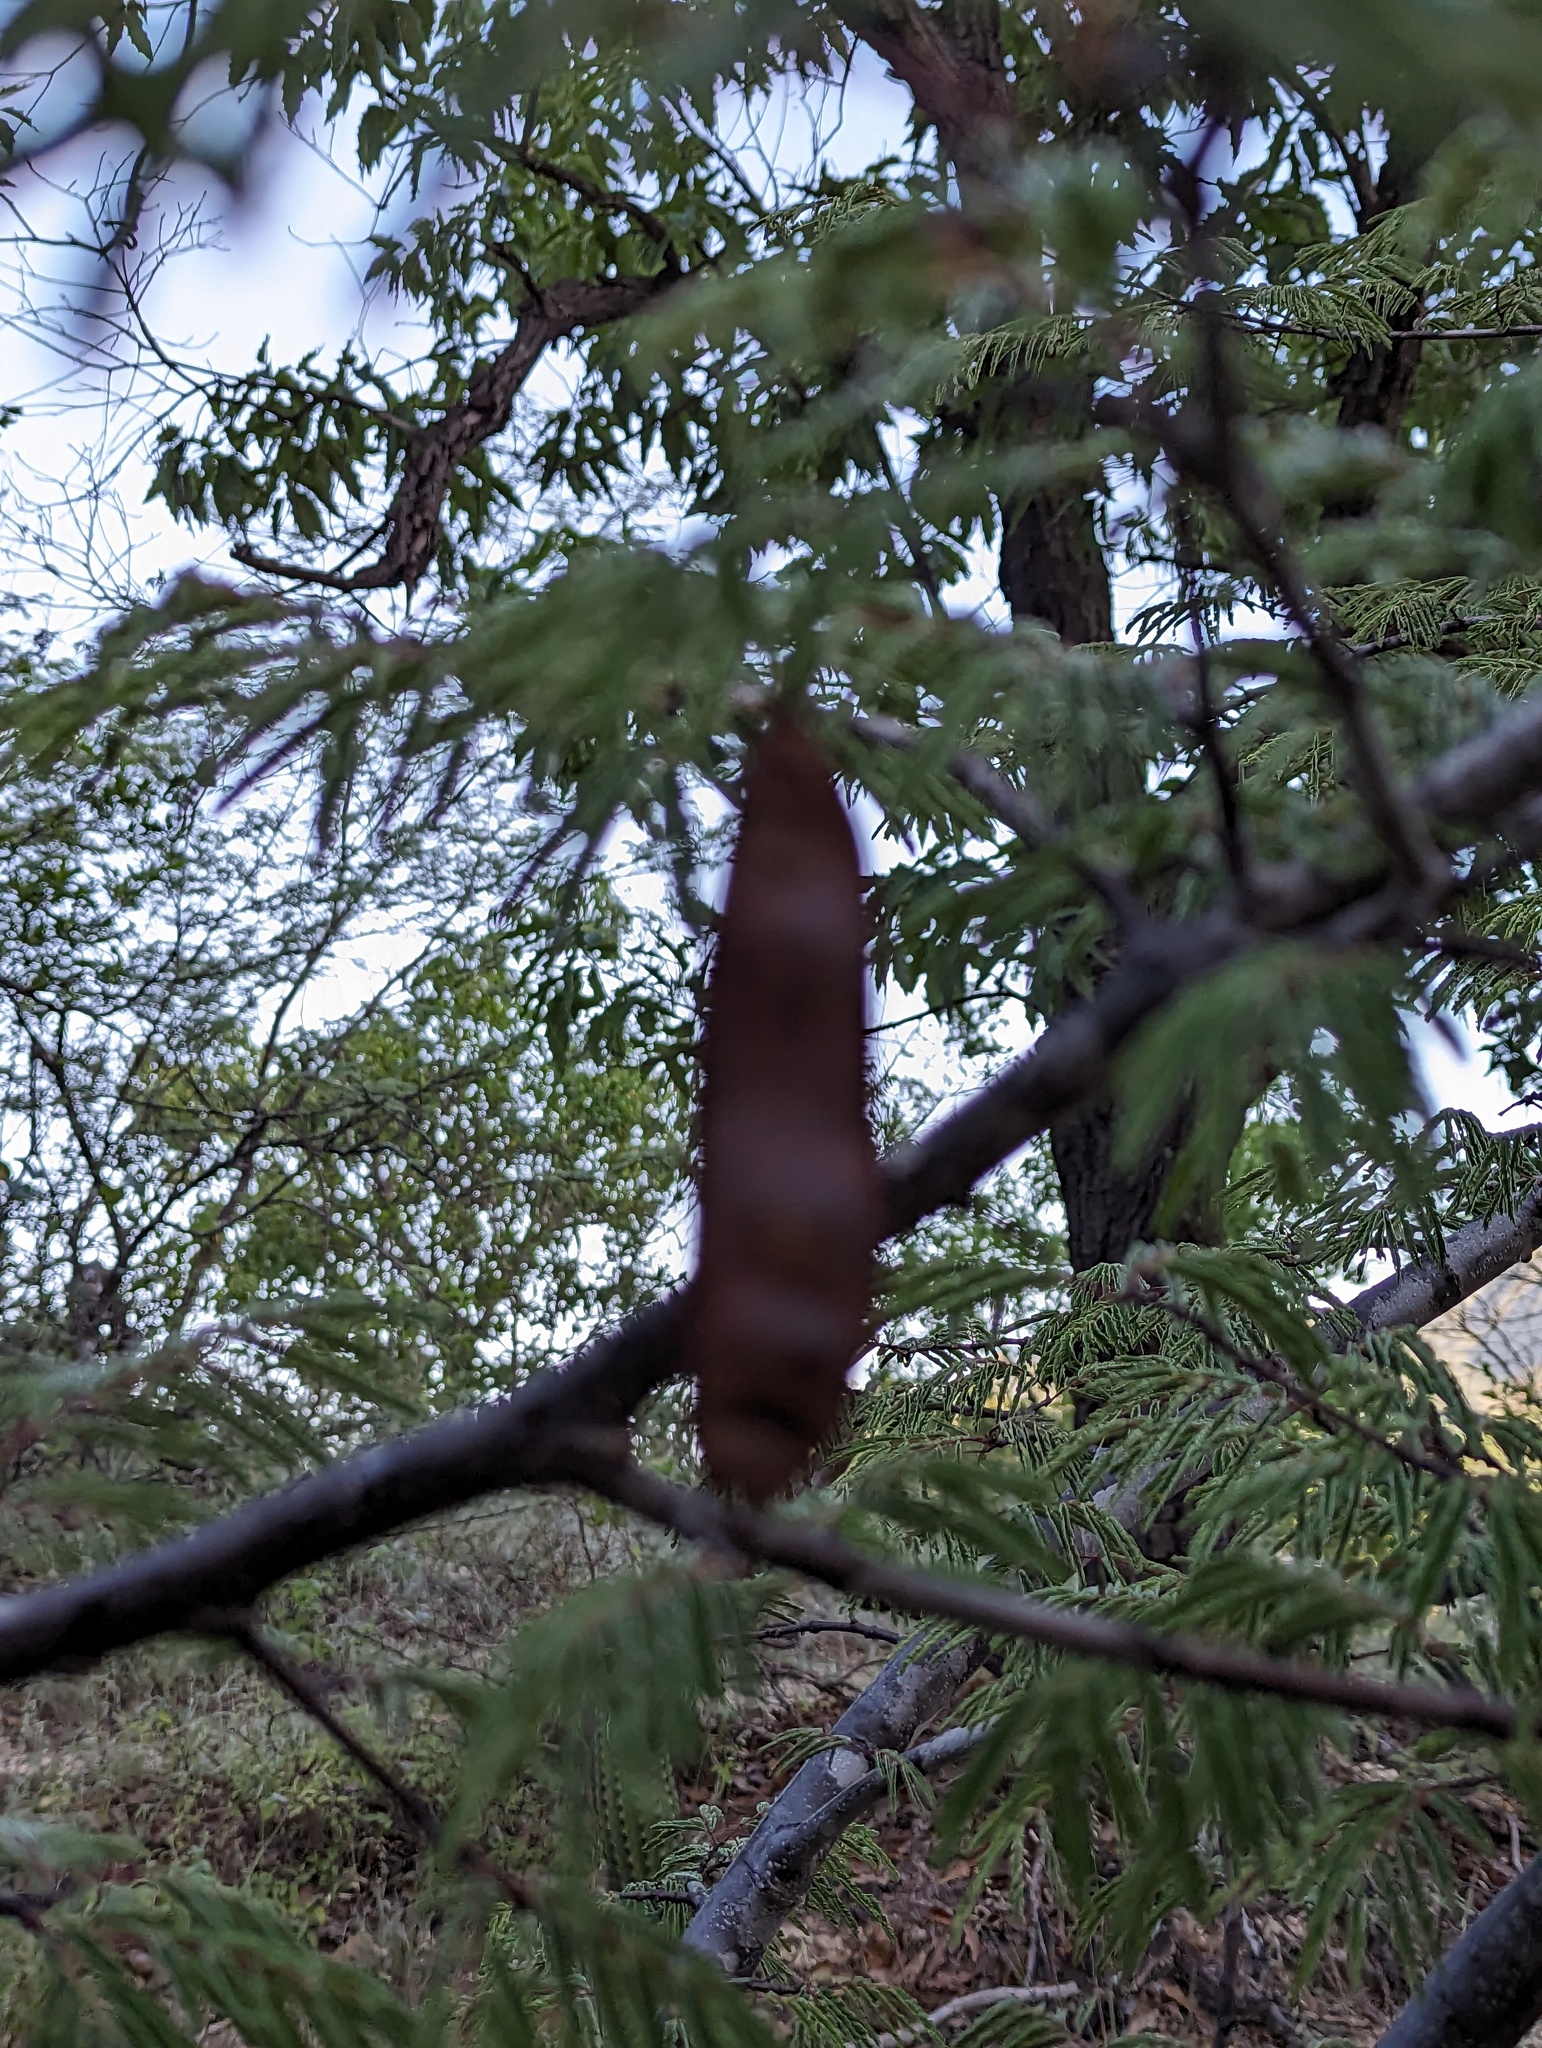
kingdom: Plantae
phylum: Tracheophyta
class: Magnoliopsida
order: Fabales
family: Fabaceae
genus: Lysiloma
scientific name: Lysiloma divaricatum
